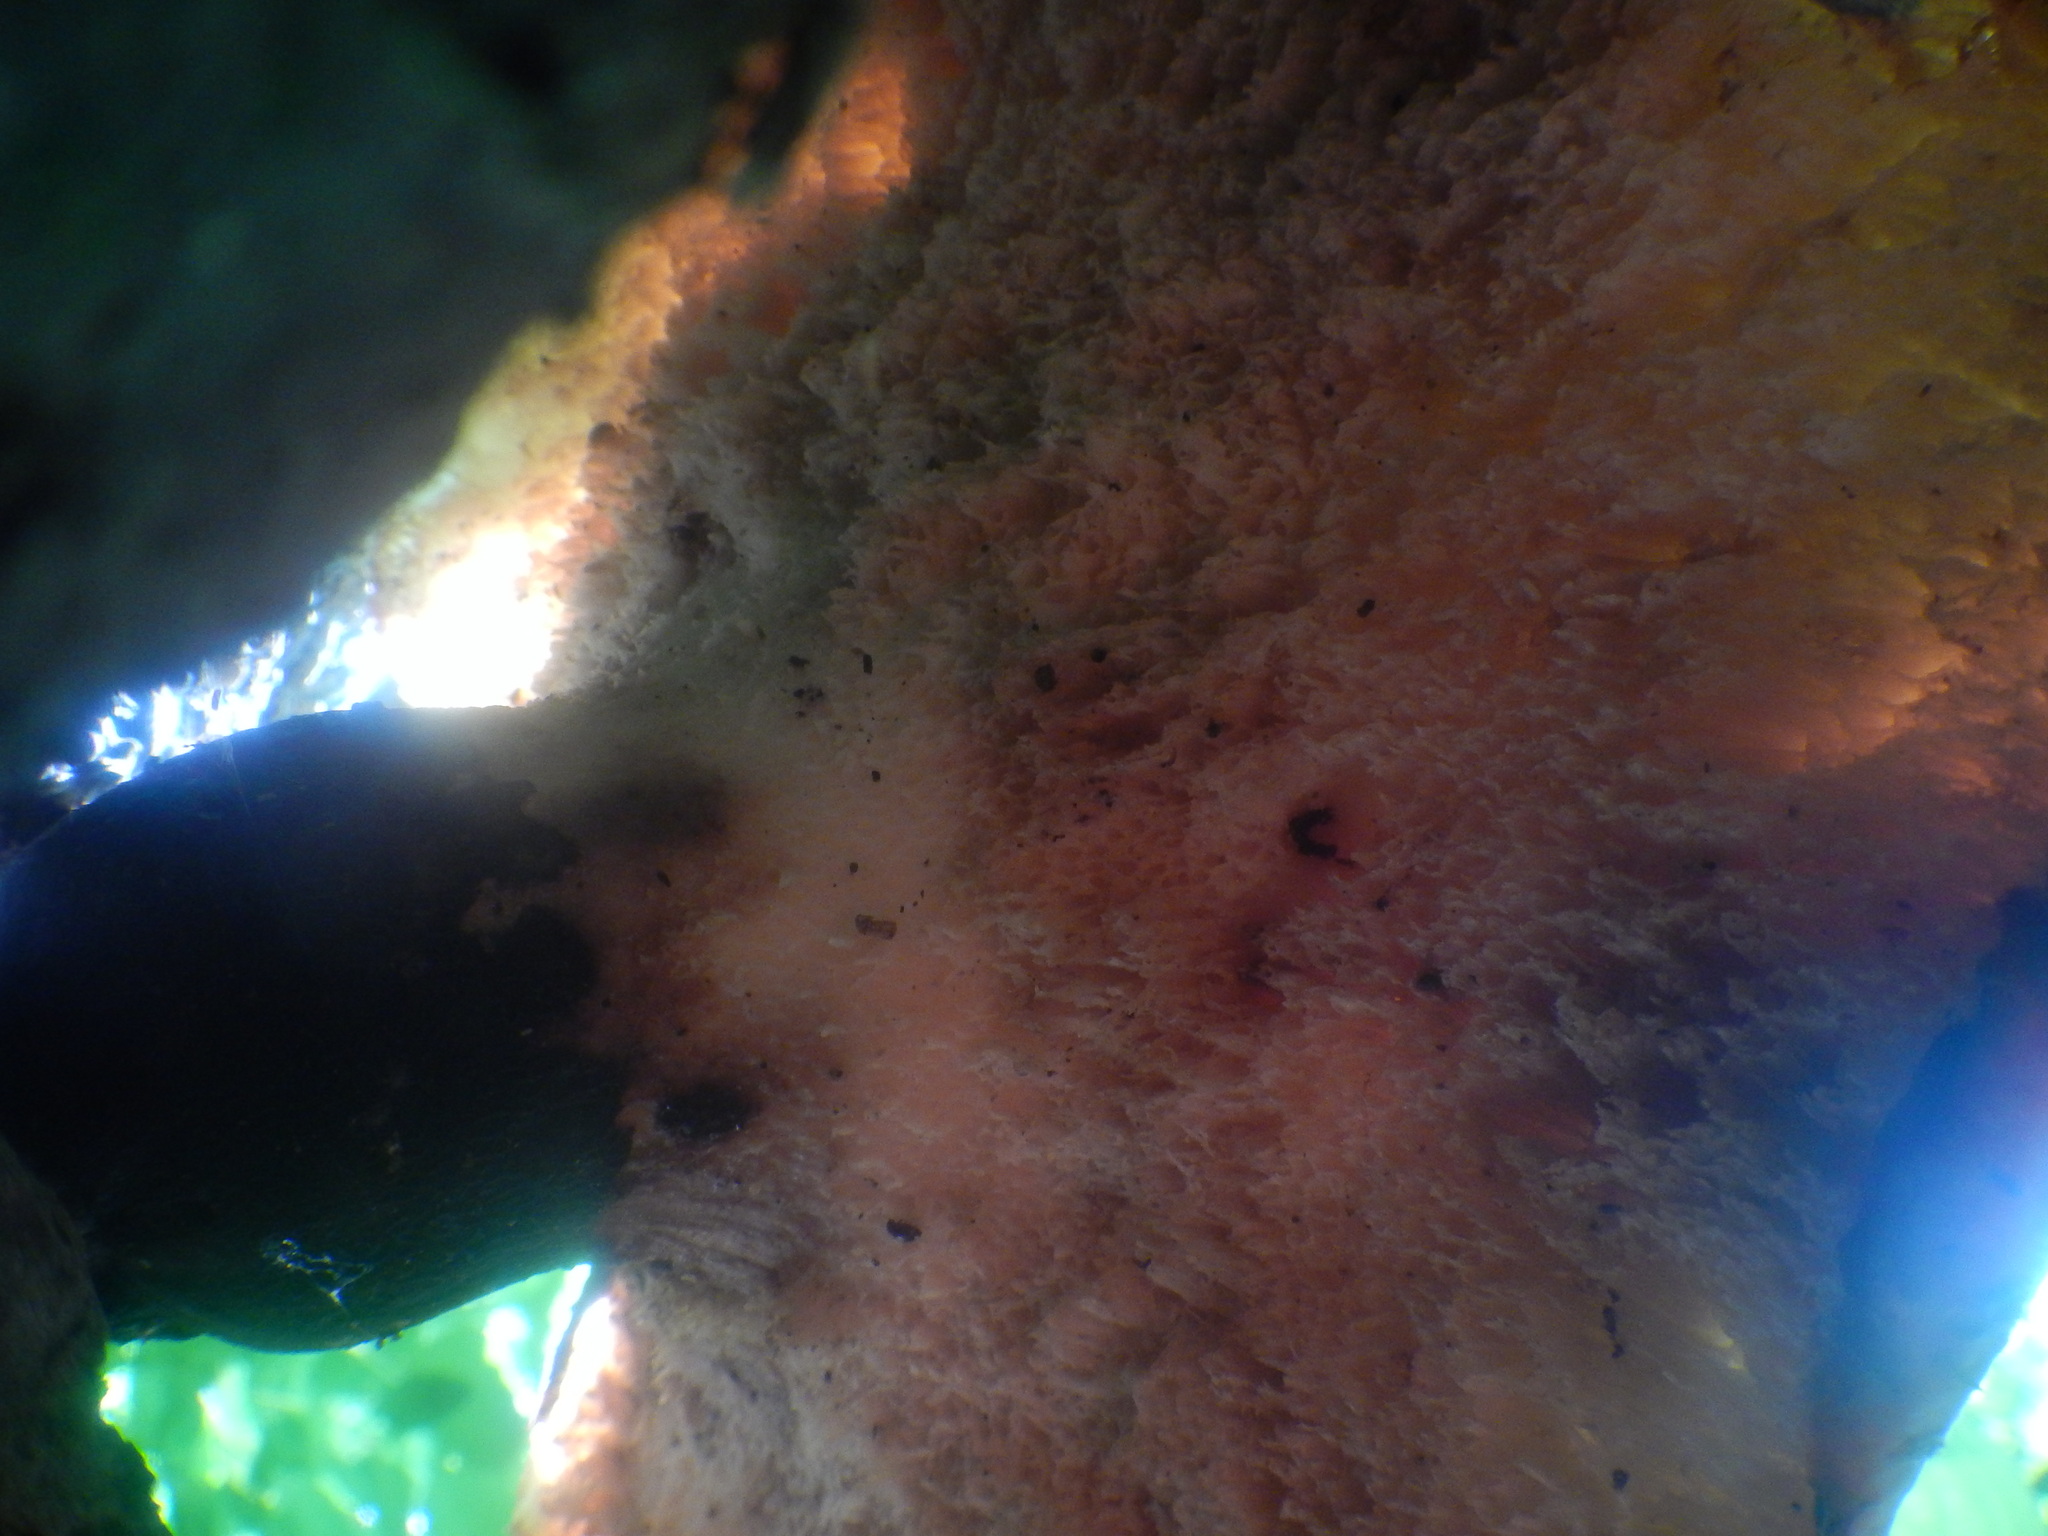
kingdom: Fungi
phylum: Basidiomycota
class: Agaricomycetes
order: Polyporales
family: Polyporaceae
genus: Cerioporus
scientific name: Cerioporus squamosus
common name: Dryad's saddle
